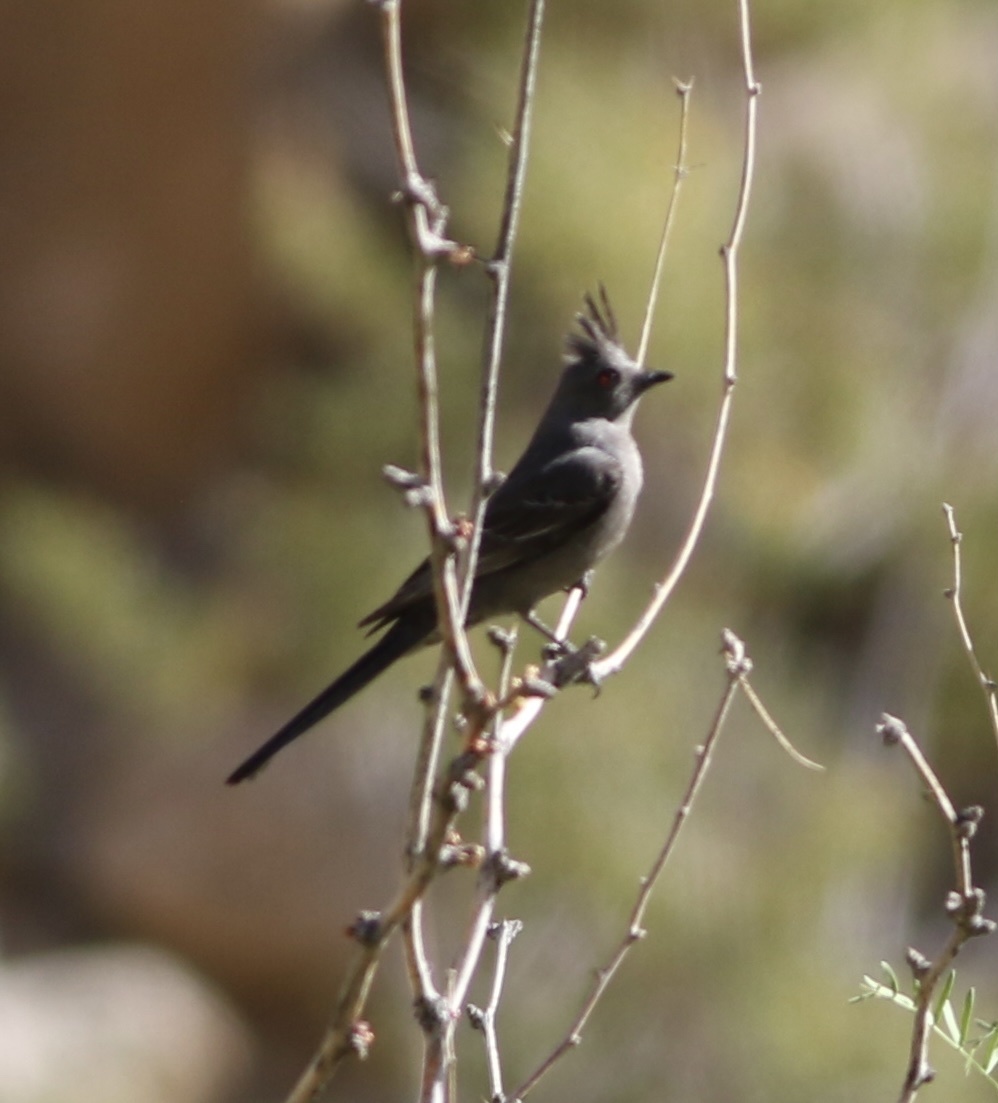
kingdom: Animalia
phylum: Chordata
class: Aves
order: Passeriformes
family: Ptilogonatidae
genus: Phainopepla
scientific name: Phainopepla nitens
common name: Phainopepla
